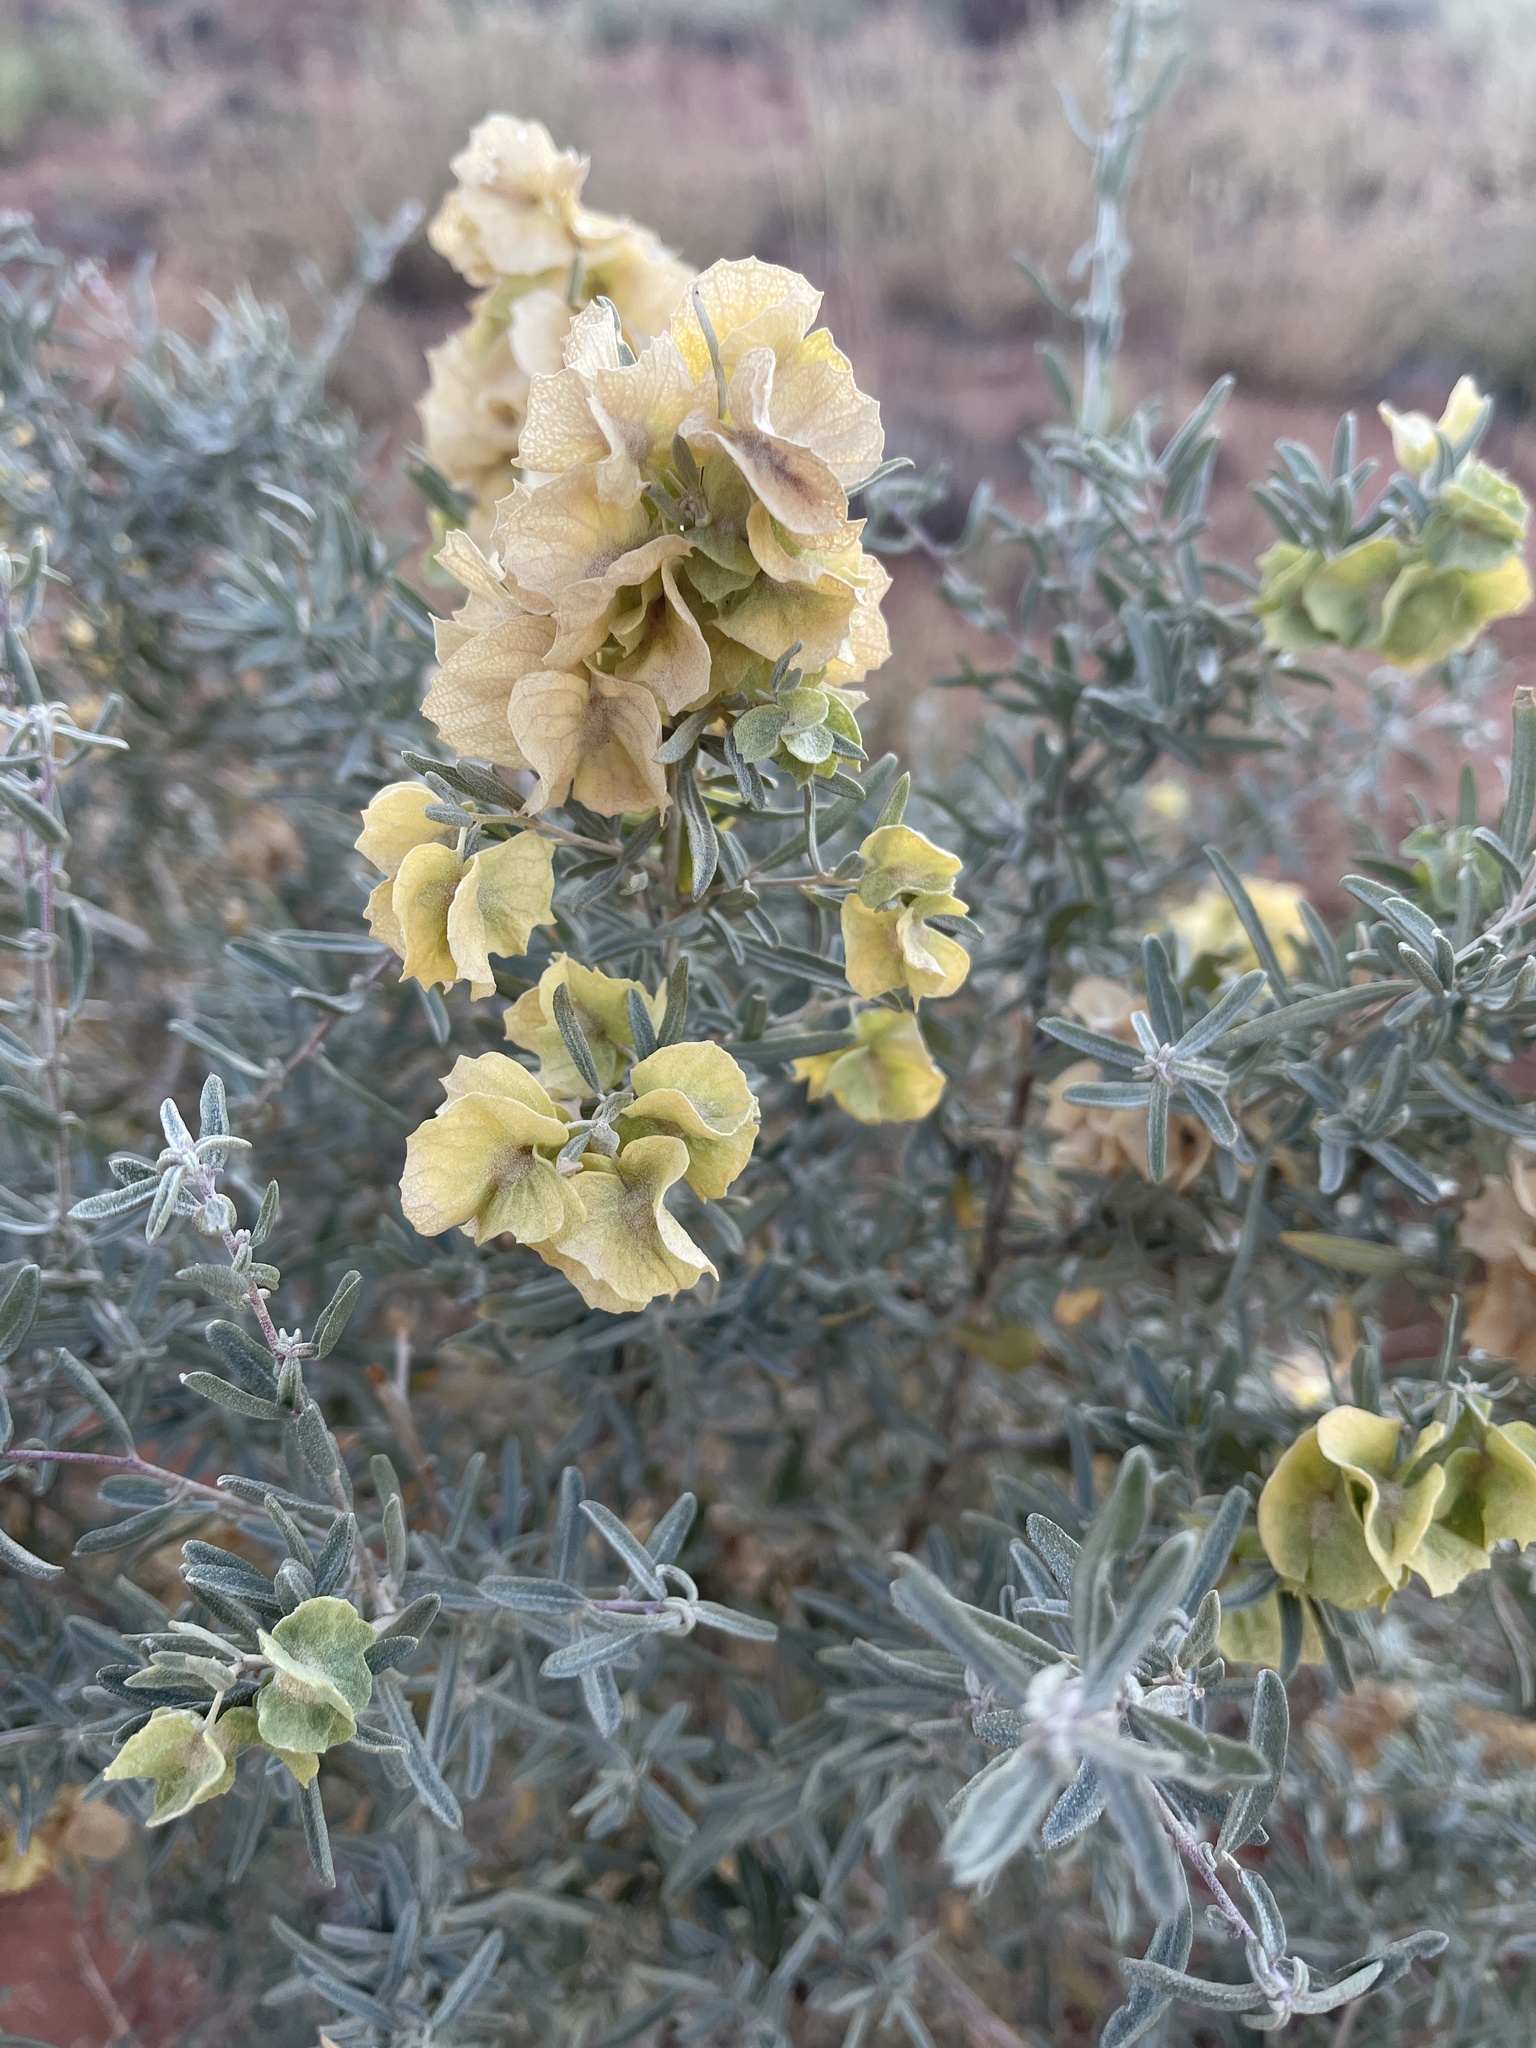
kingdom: Plantae
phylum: Tracheophyta
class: Magnoliopsida
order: Caryophyllales
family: Amaranthaceae
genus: Atriplex
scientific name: Atriplex canescens
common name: Four-wing saltbush
